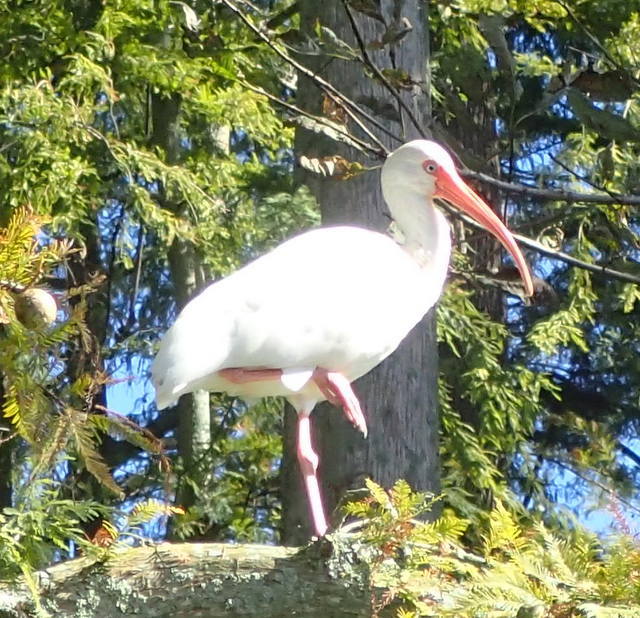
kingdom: Animalia
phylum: Chordata
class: Aves
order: Pelecaniformes
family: Threskiornithidae
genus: Eudocimus
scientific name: Eudocimus albus
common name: White ibis
